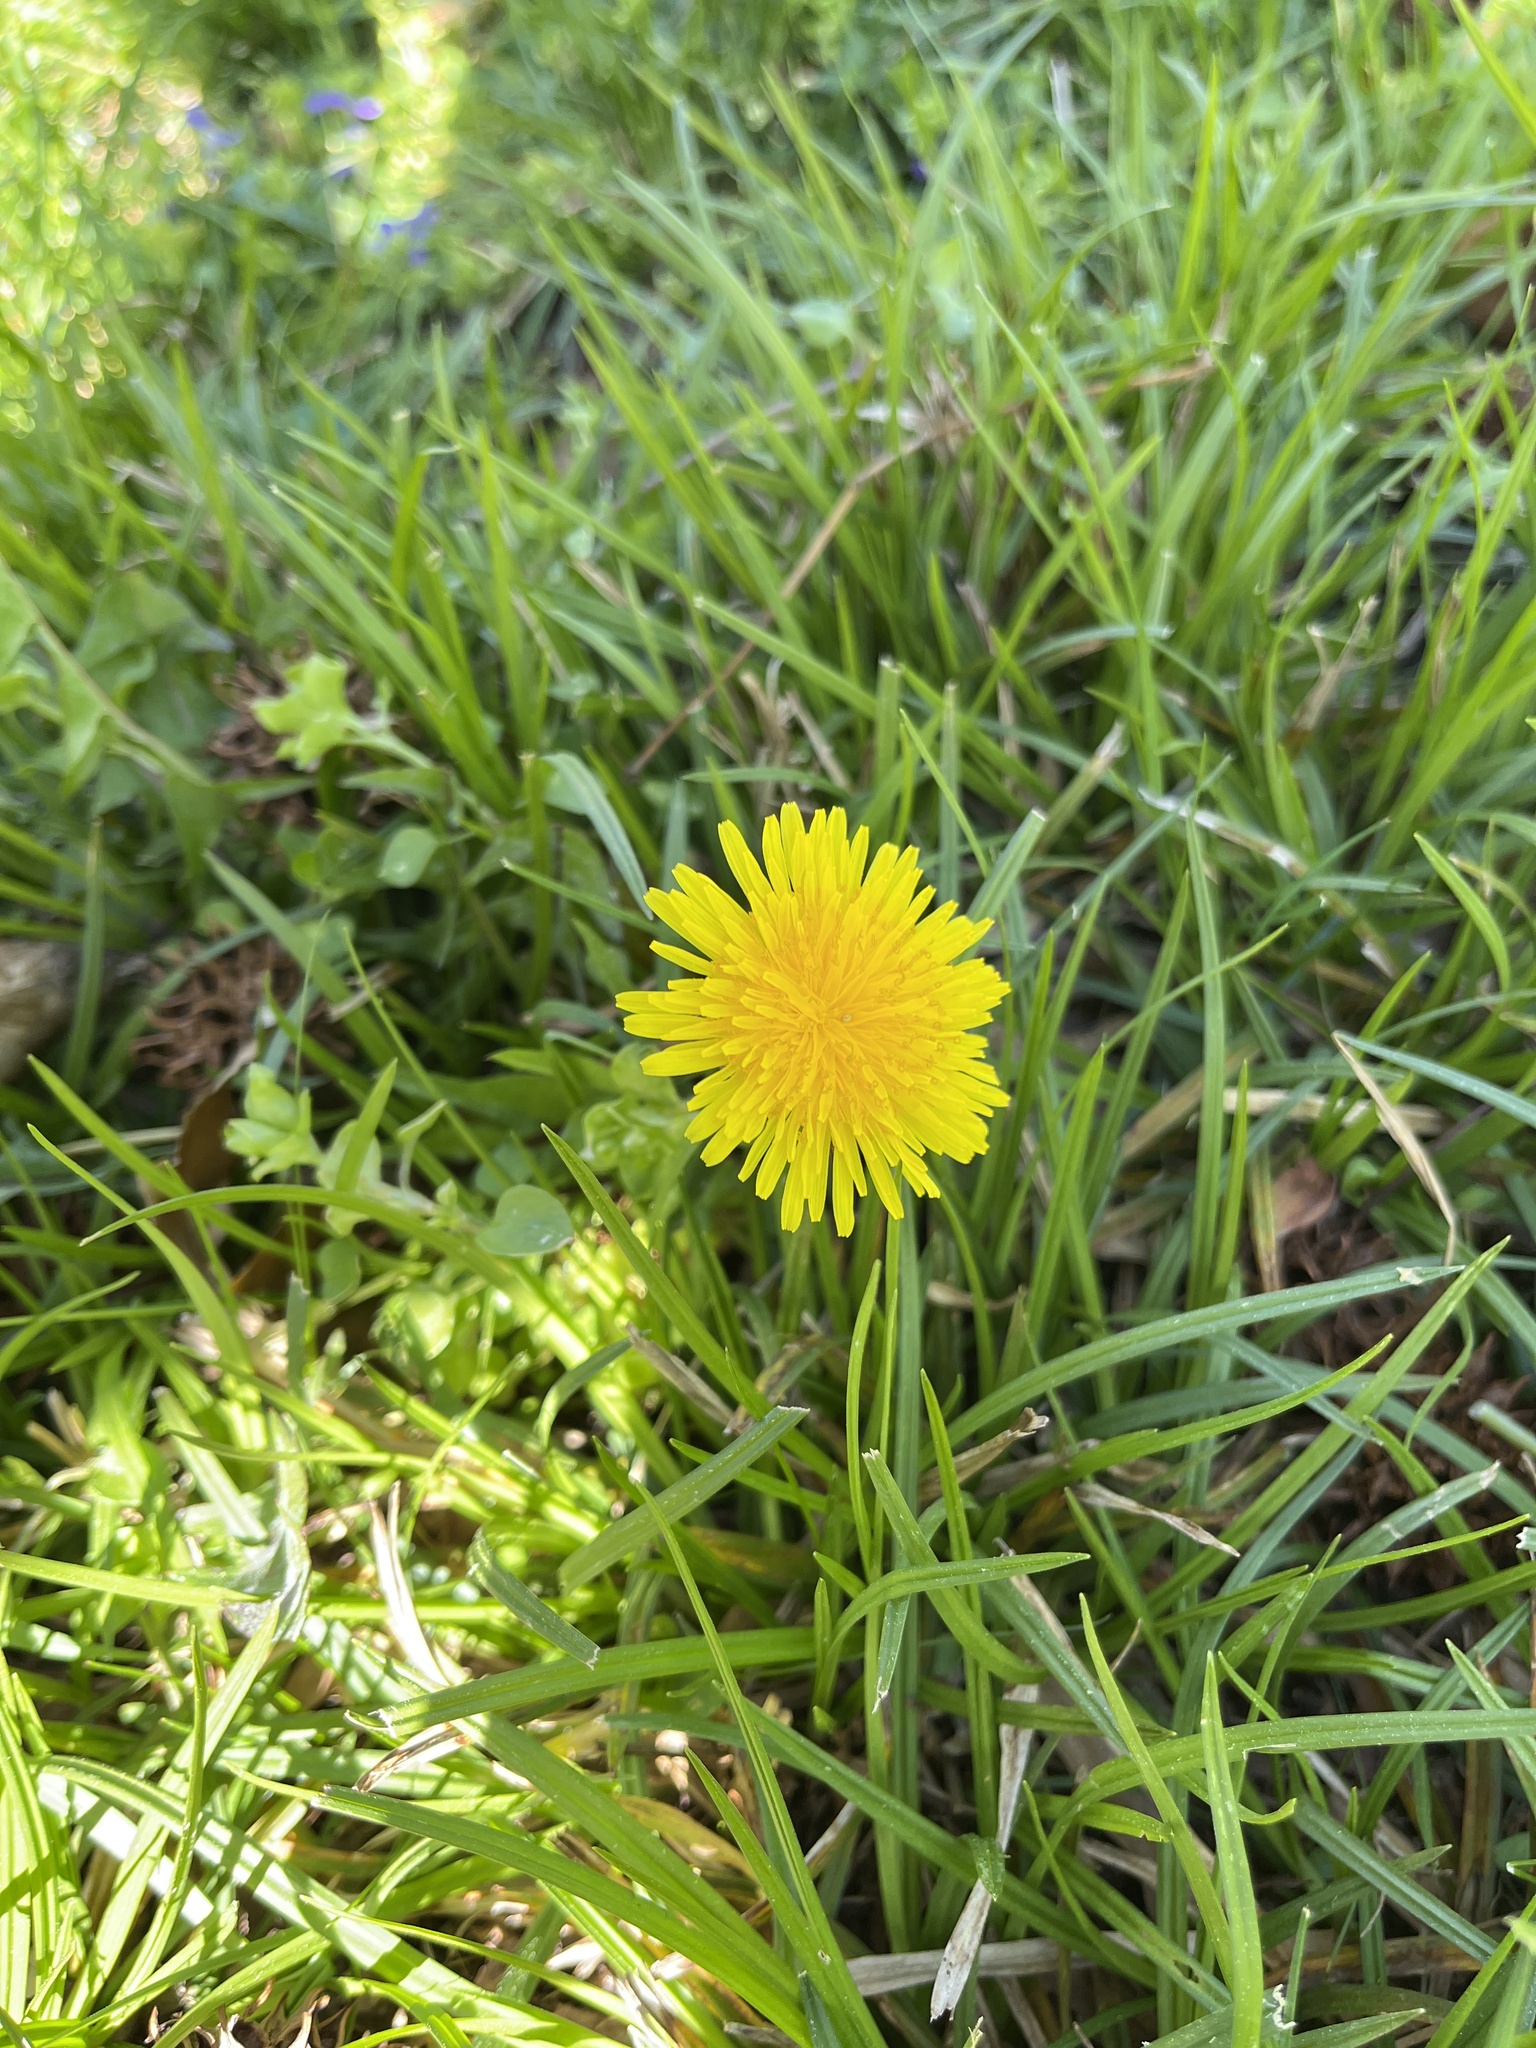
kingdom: Plantae
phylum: Tracheophyta
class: Magnoliopsida
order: Asterales
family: Asteraceae
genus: Taraxacum
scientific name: Taraxacum
